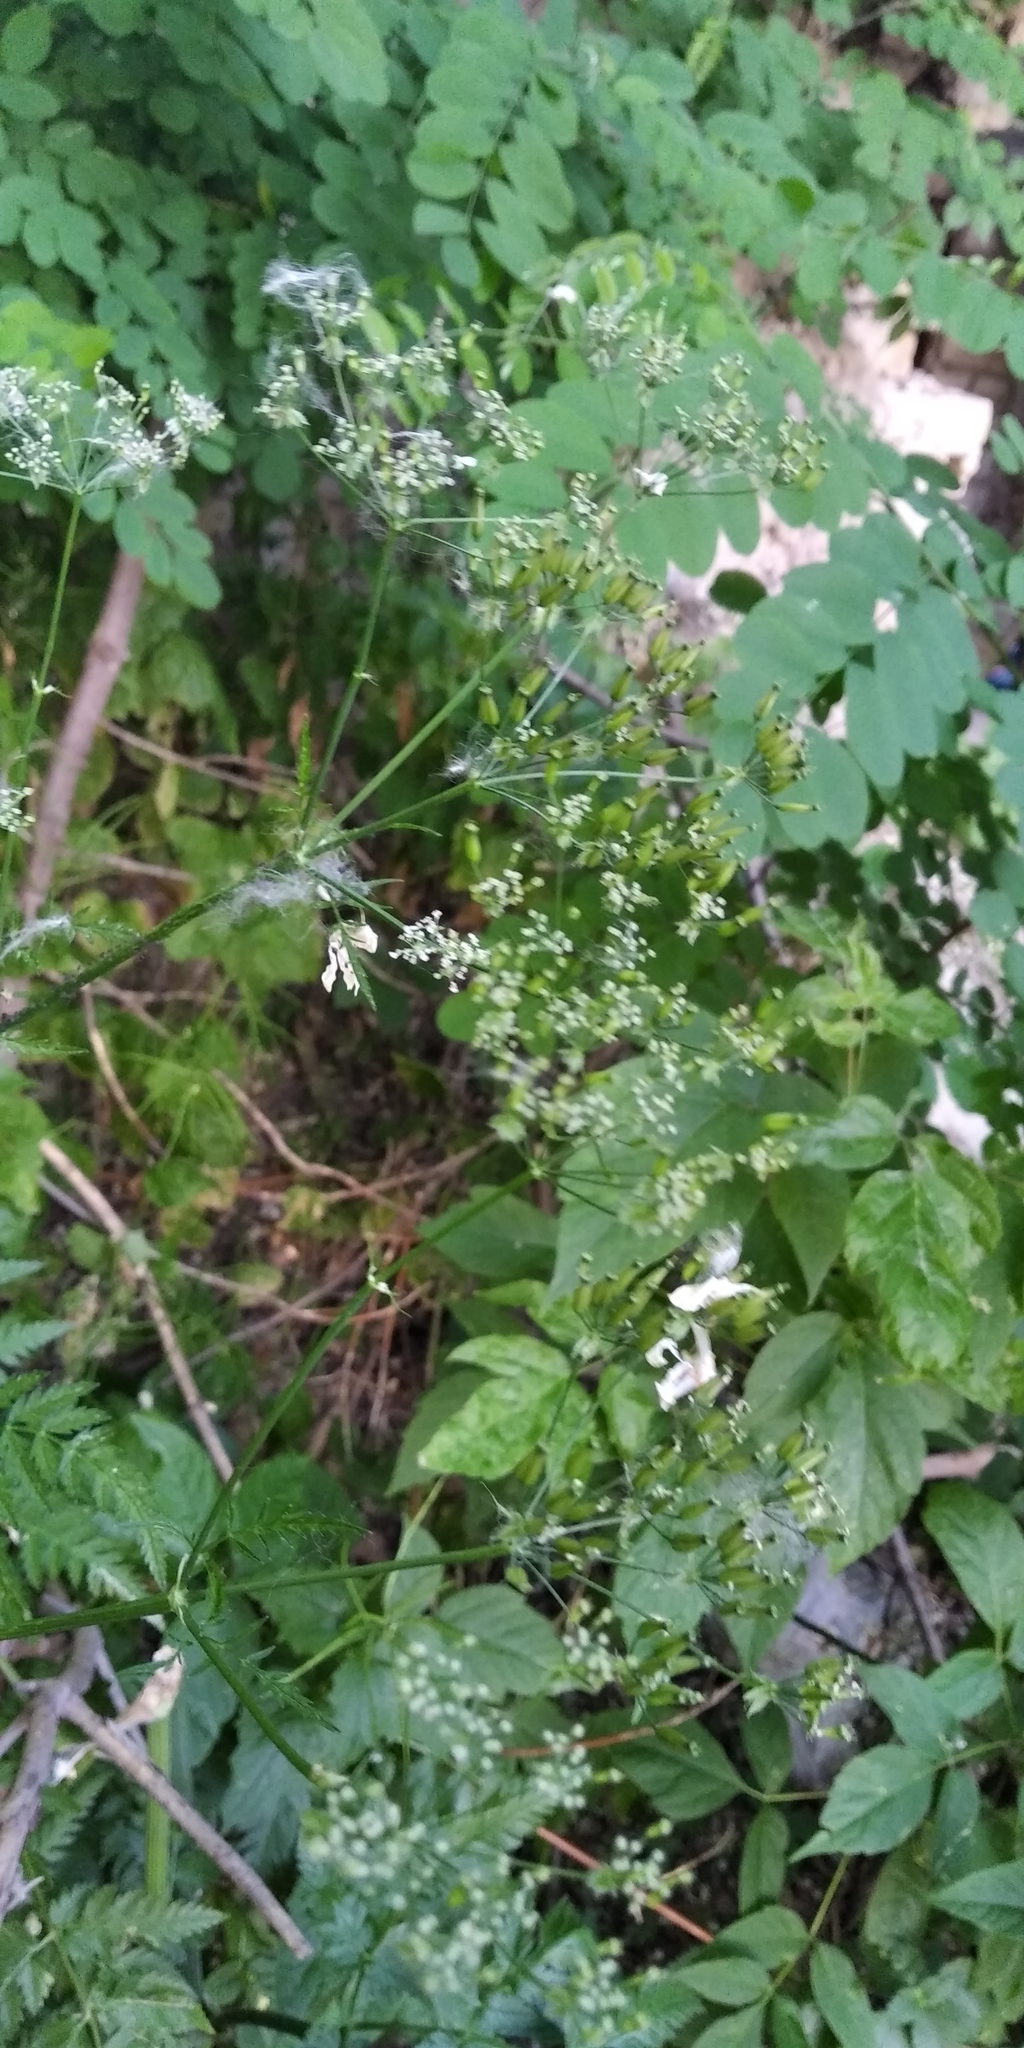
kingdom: Plantae
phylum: Tracheophyta
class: Magnoliopsida
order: Apiales
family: Apiaceae
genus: Torilis
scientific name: Torilis japonica
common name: Upright hedge-parsley
